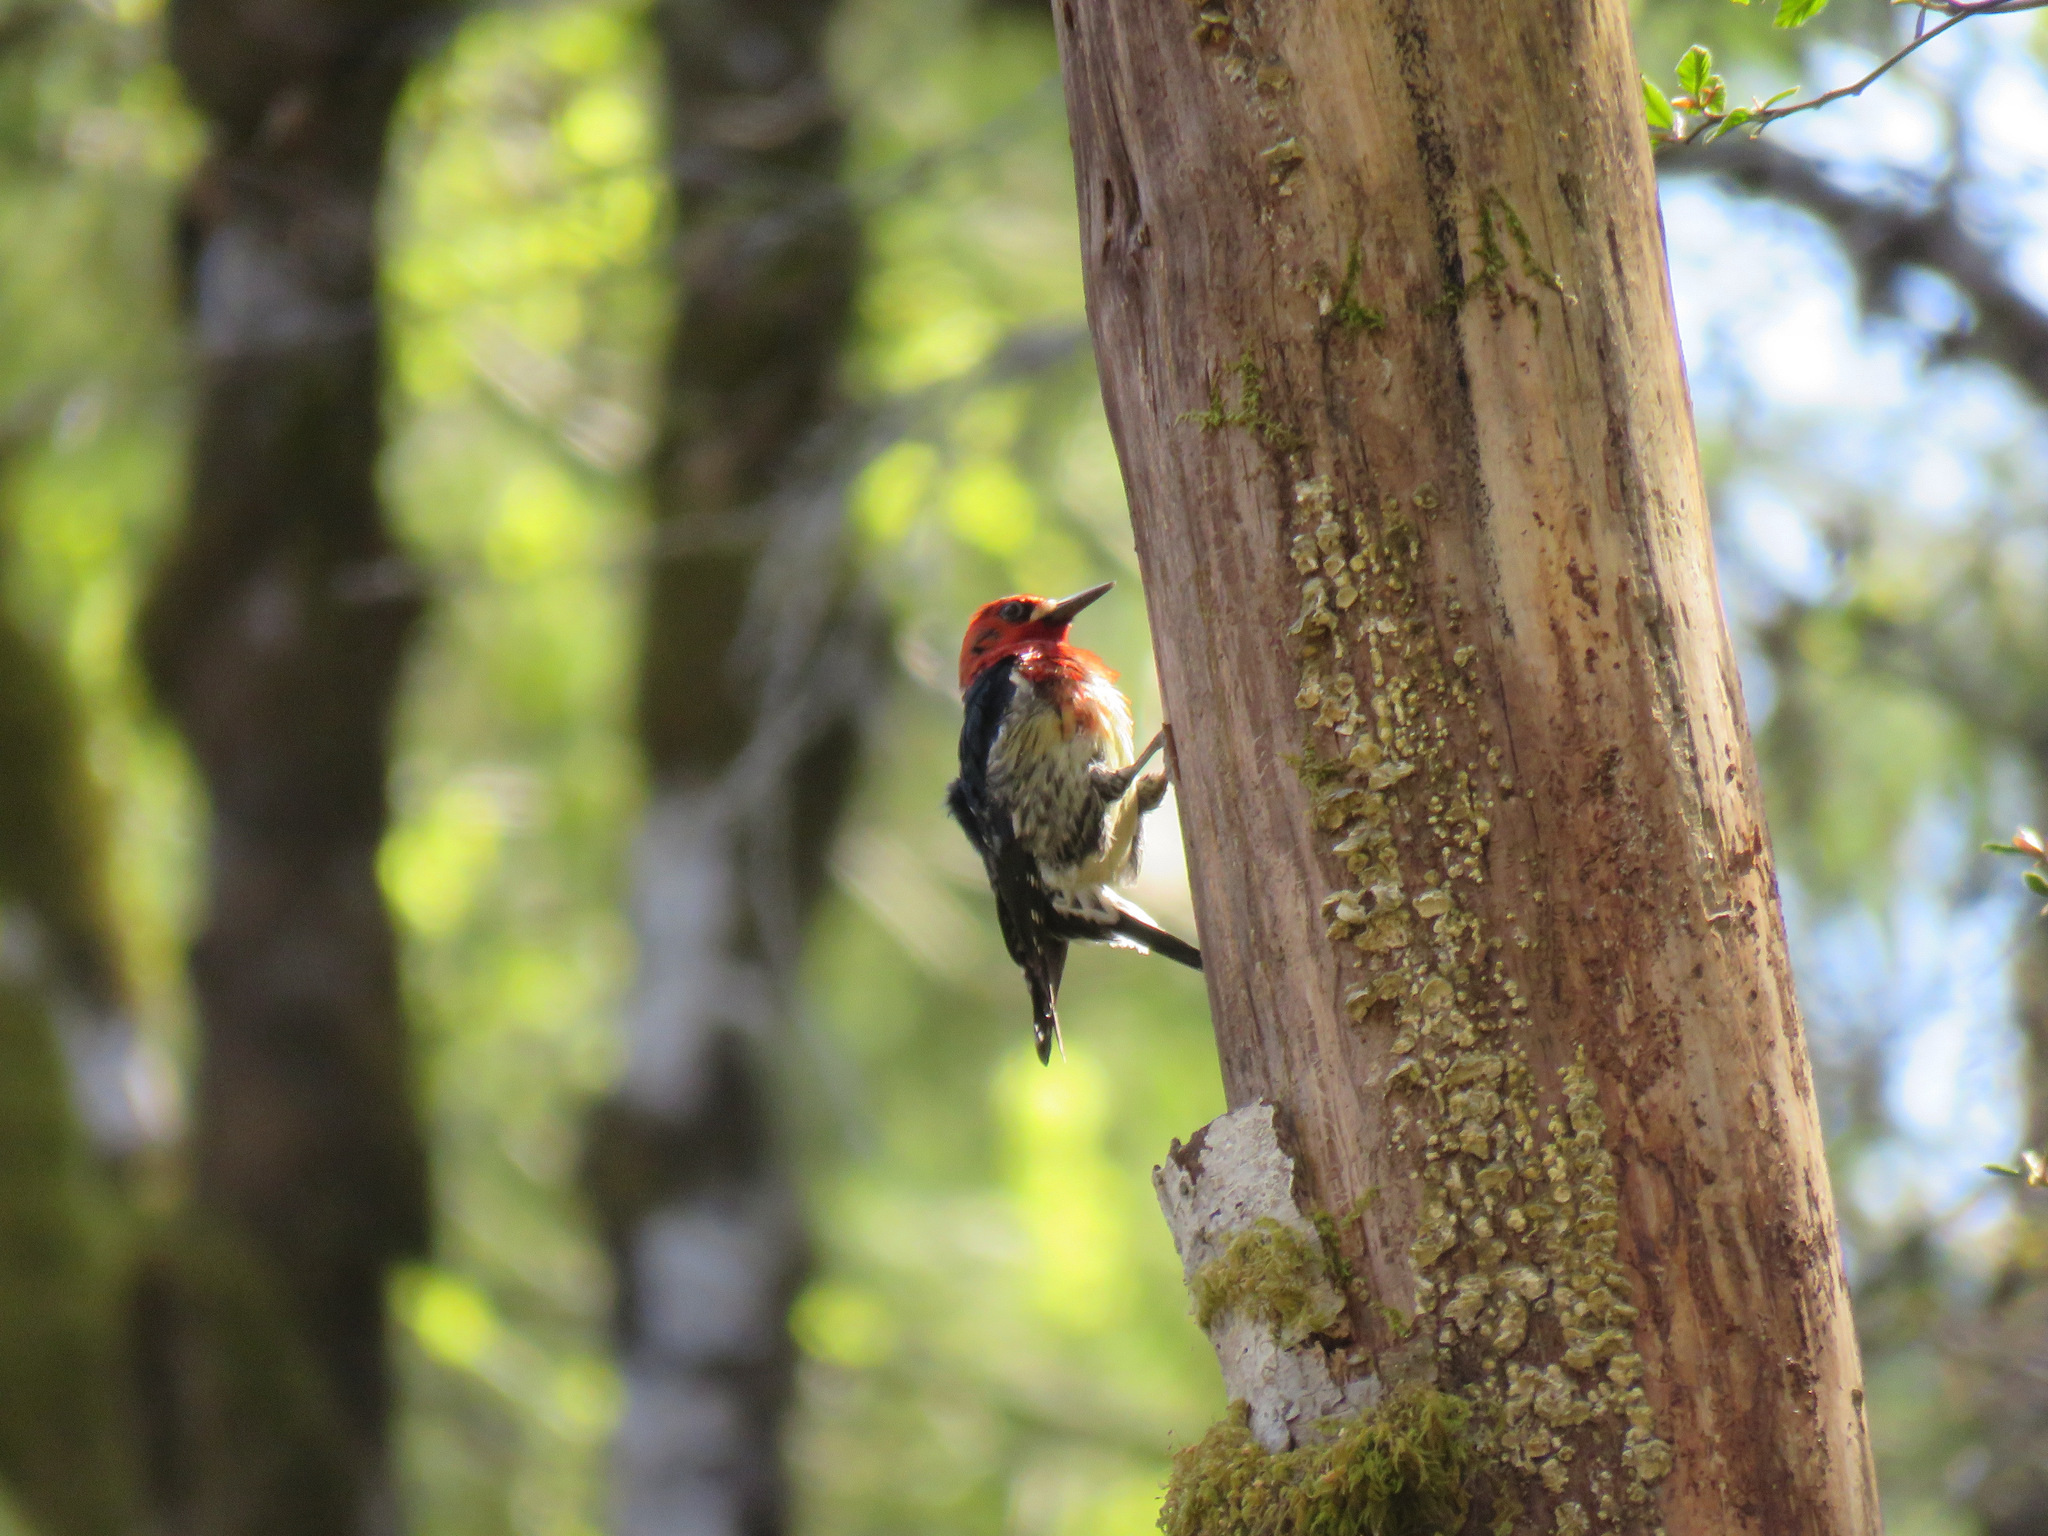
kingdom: Animalia
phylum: Chordata
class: Aves
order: Piciformes
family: Picidae
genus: Sphyrapicus
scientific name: Sphyrapicus ruber
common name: Red-breasted sapsucker
